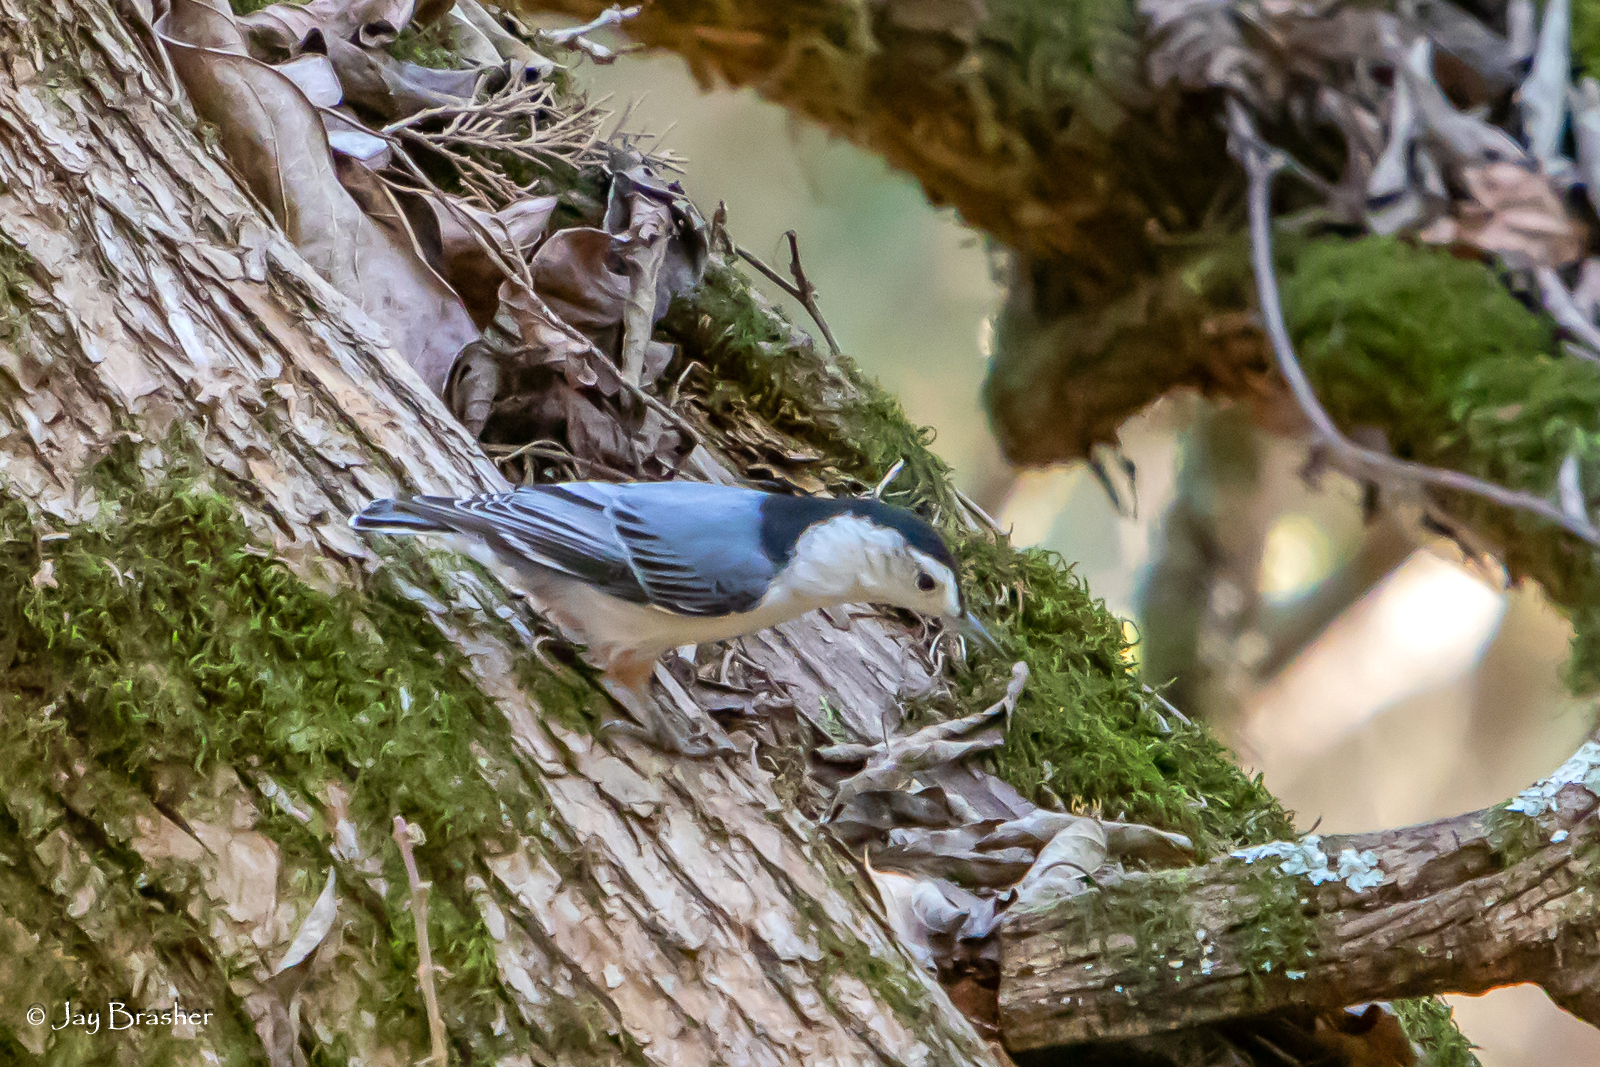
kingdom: Animalia
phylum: Chordata
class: Aves
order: Passeriformes
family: Sittidae
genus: Sitta
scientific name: Sitta carolinensis
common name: White-breasted nuthatch
